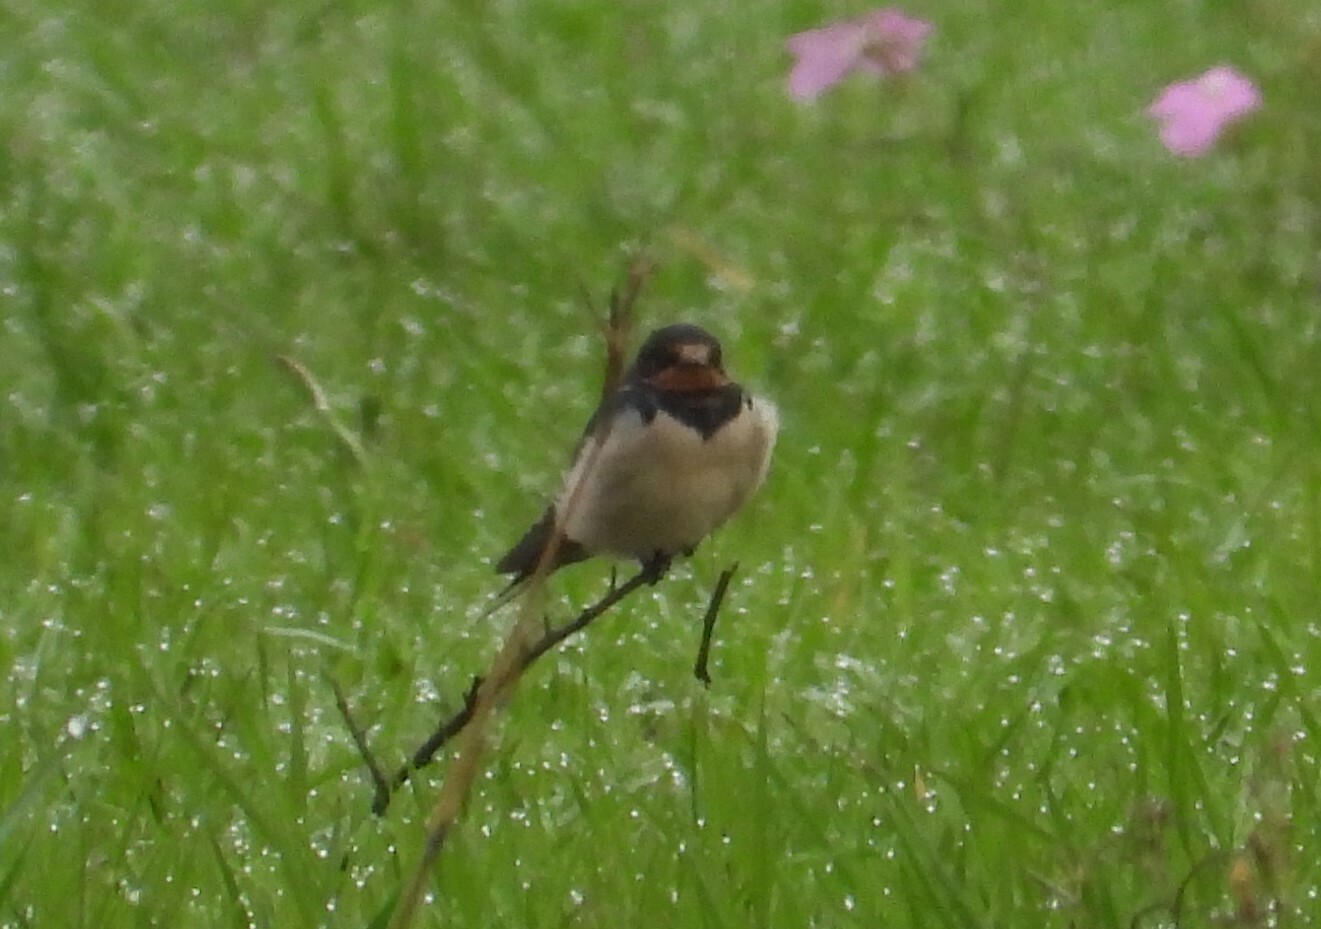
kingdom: Animalia
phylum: Chordata
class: Aves
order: Passeriformes
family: Hirundinidae
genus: Hirundo
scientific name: Hirundo rustica
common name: Barn swallow
